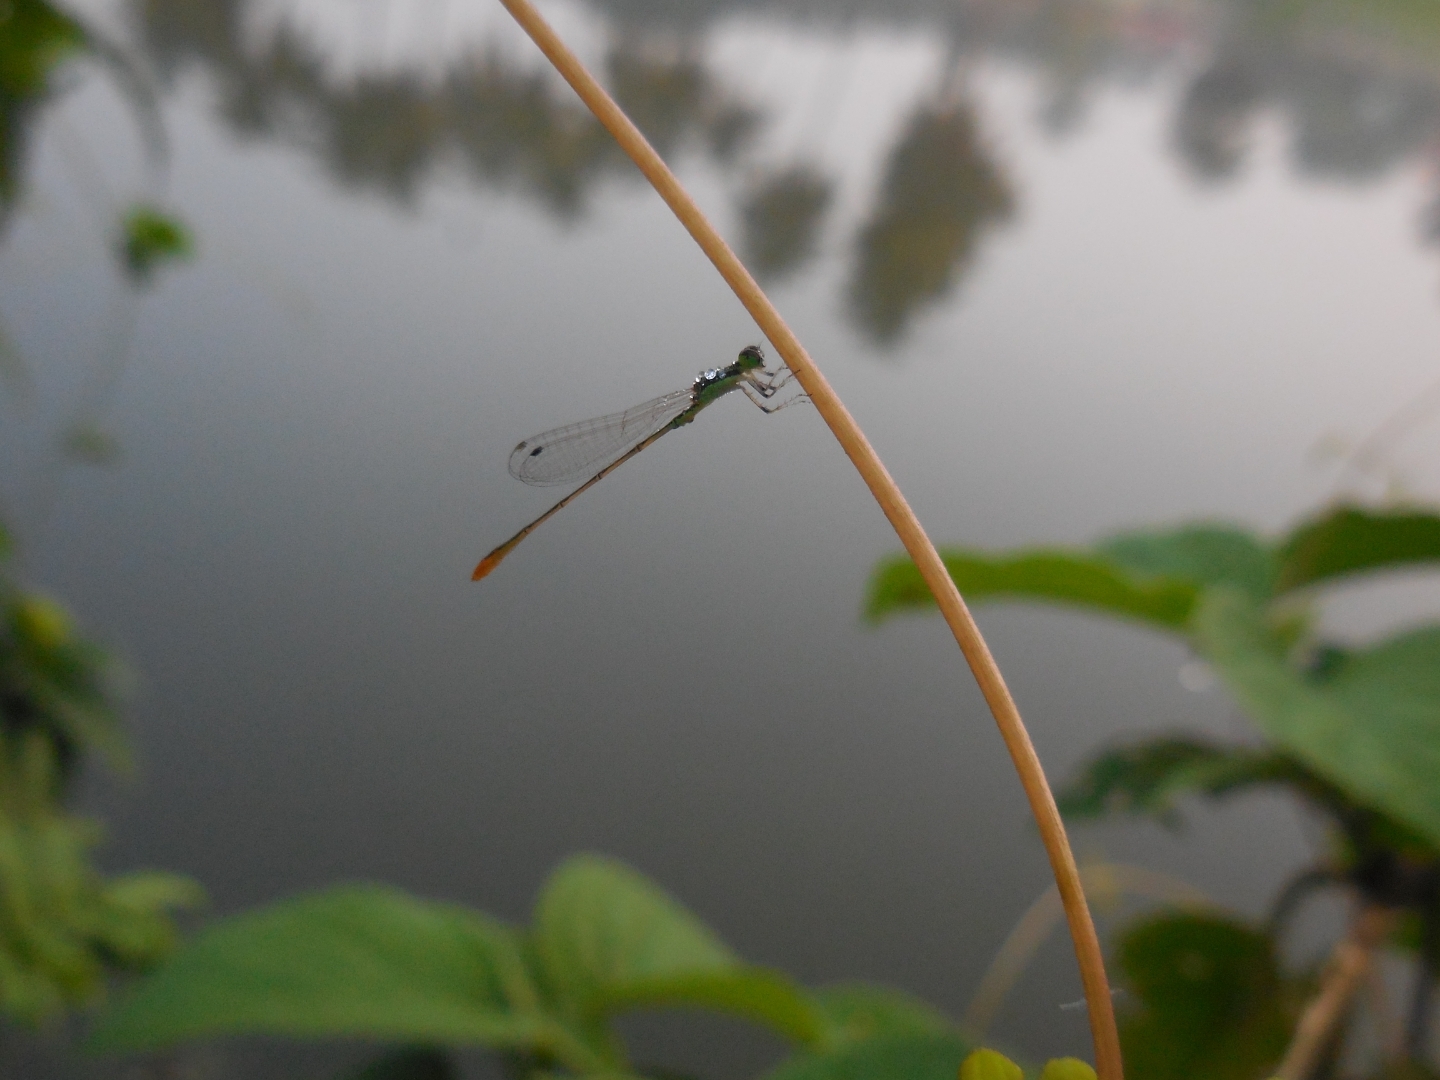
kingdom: Animalia
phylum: Arthropoda
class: Insecta
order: Odonata
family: Coenagrionidae
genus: Agriocnemis
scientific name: Agriocnemis pygmaea
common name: Pygmy wisp
